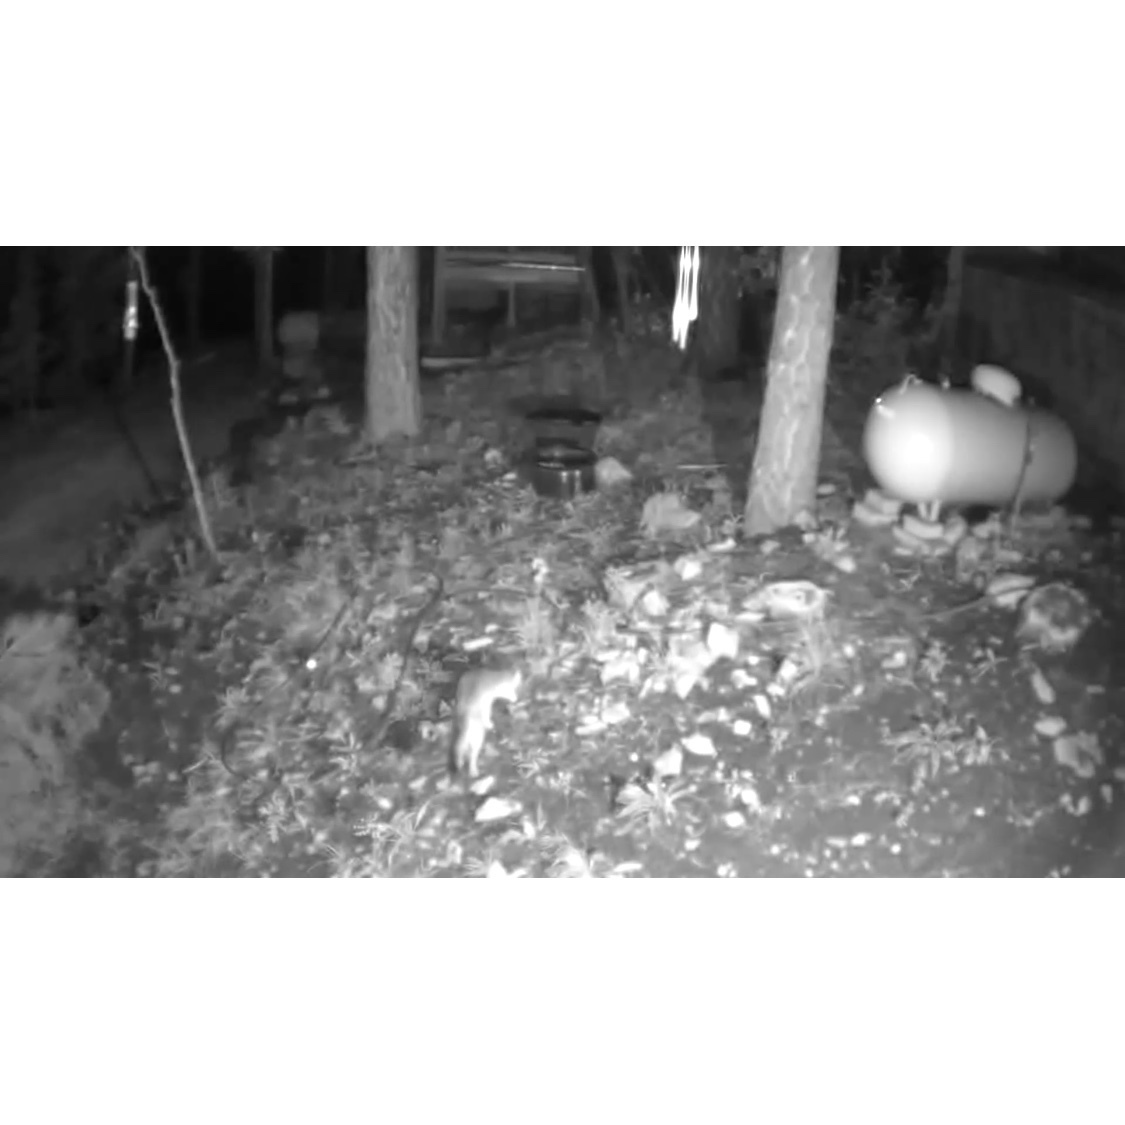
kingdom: Animalia
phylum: Chordata
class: Mammalia
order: Carnivora
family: Canidae
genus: Urocyon
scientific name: Urocyon cinereoargenteus
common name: Gray fox
